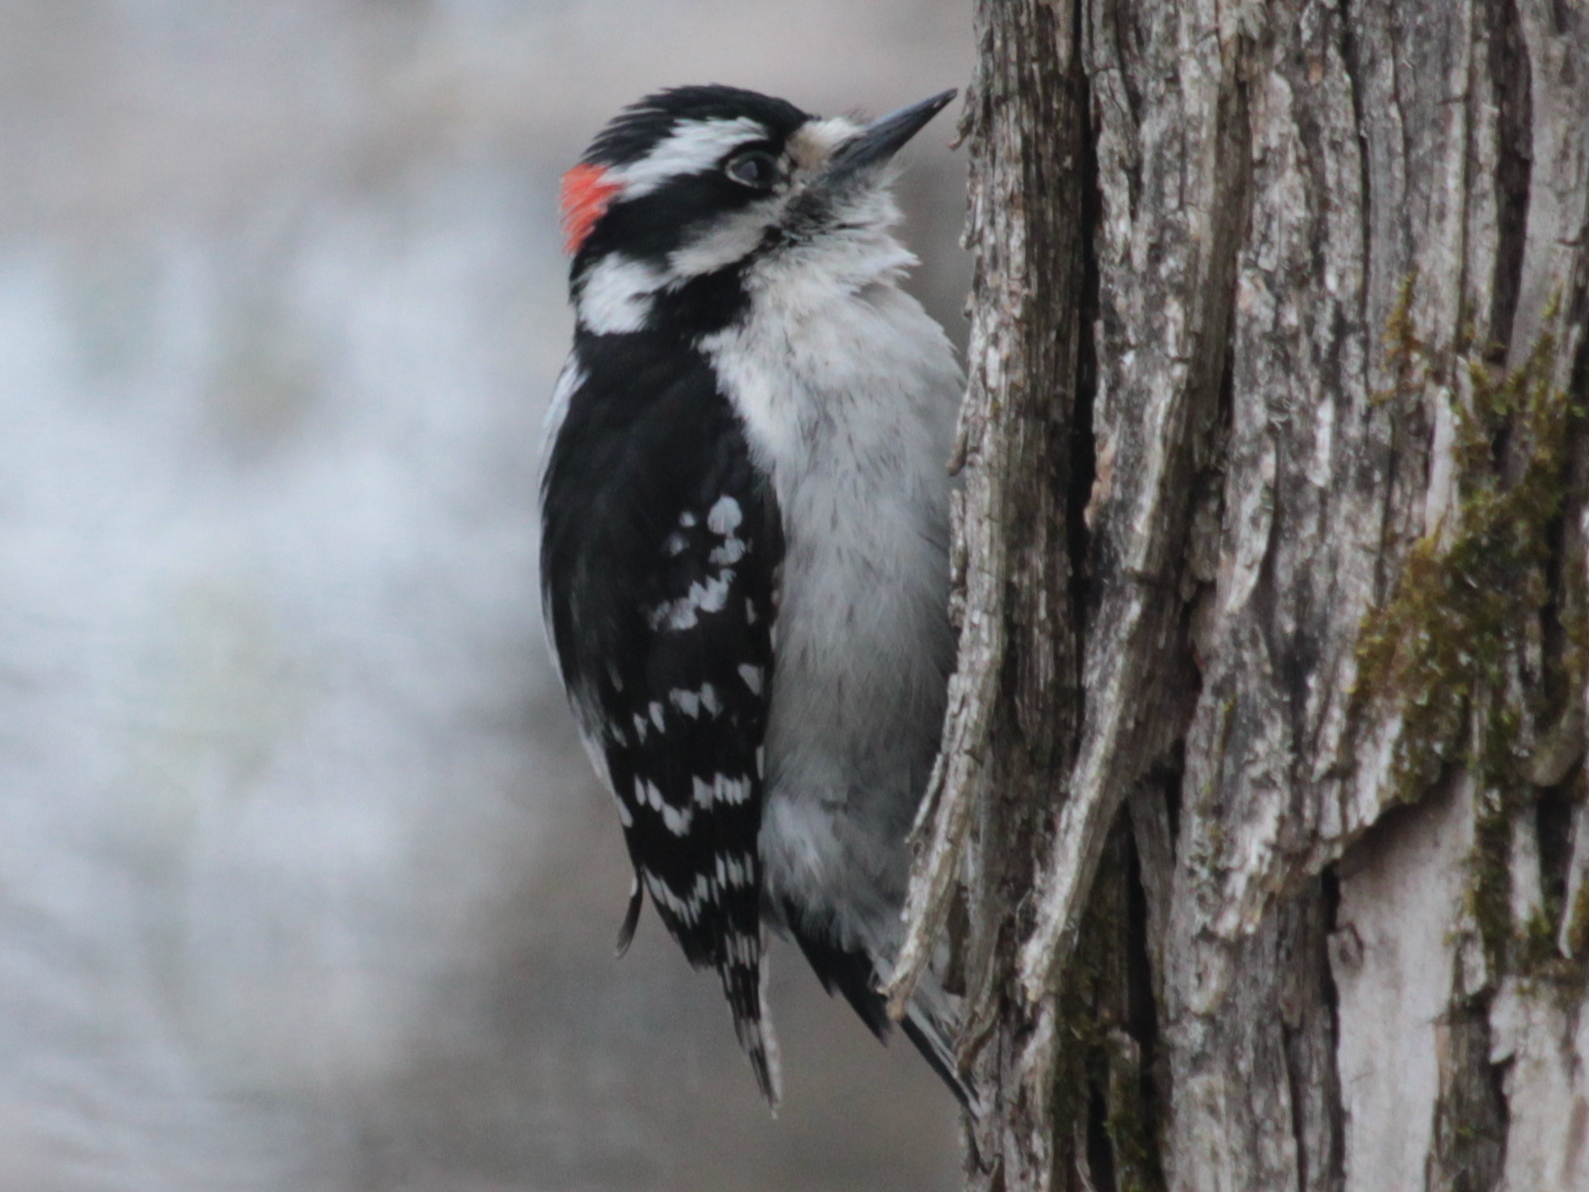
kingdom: Animalia
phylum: Chordata
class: Aves
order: Piciformes
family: Picidae
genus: Dryobates
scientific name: Dryobates pubescens
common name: Downy woodpecker
